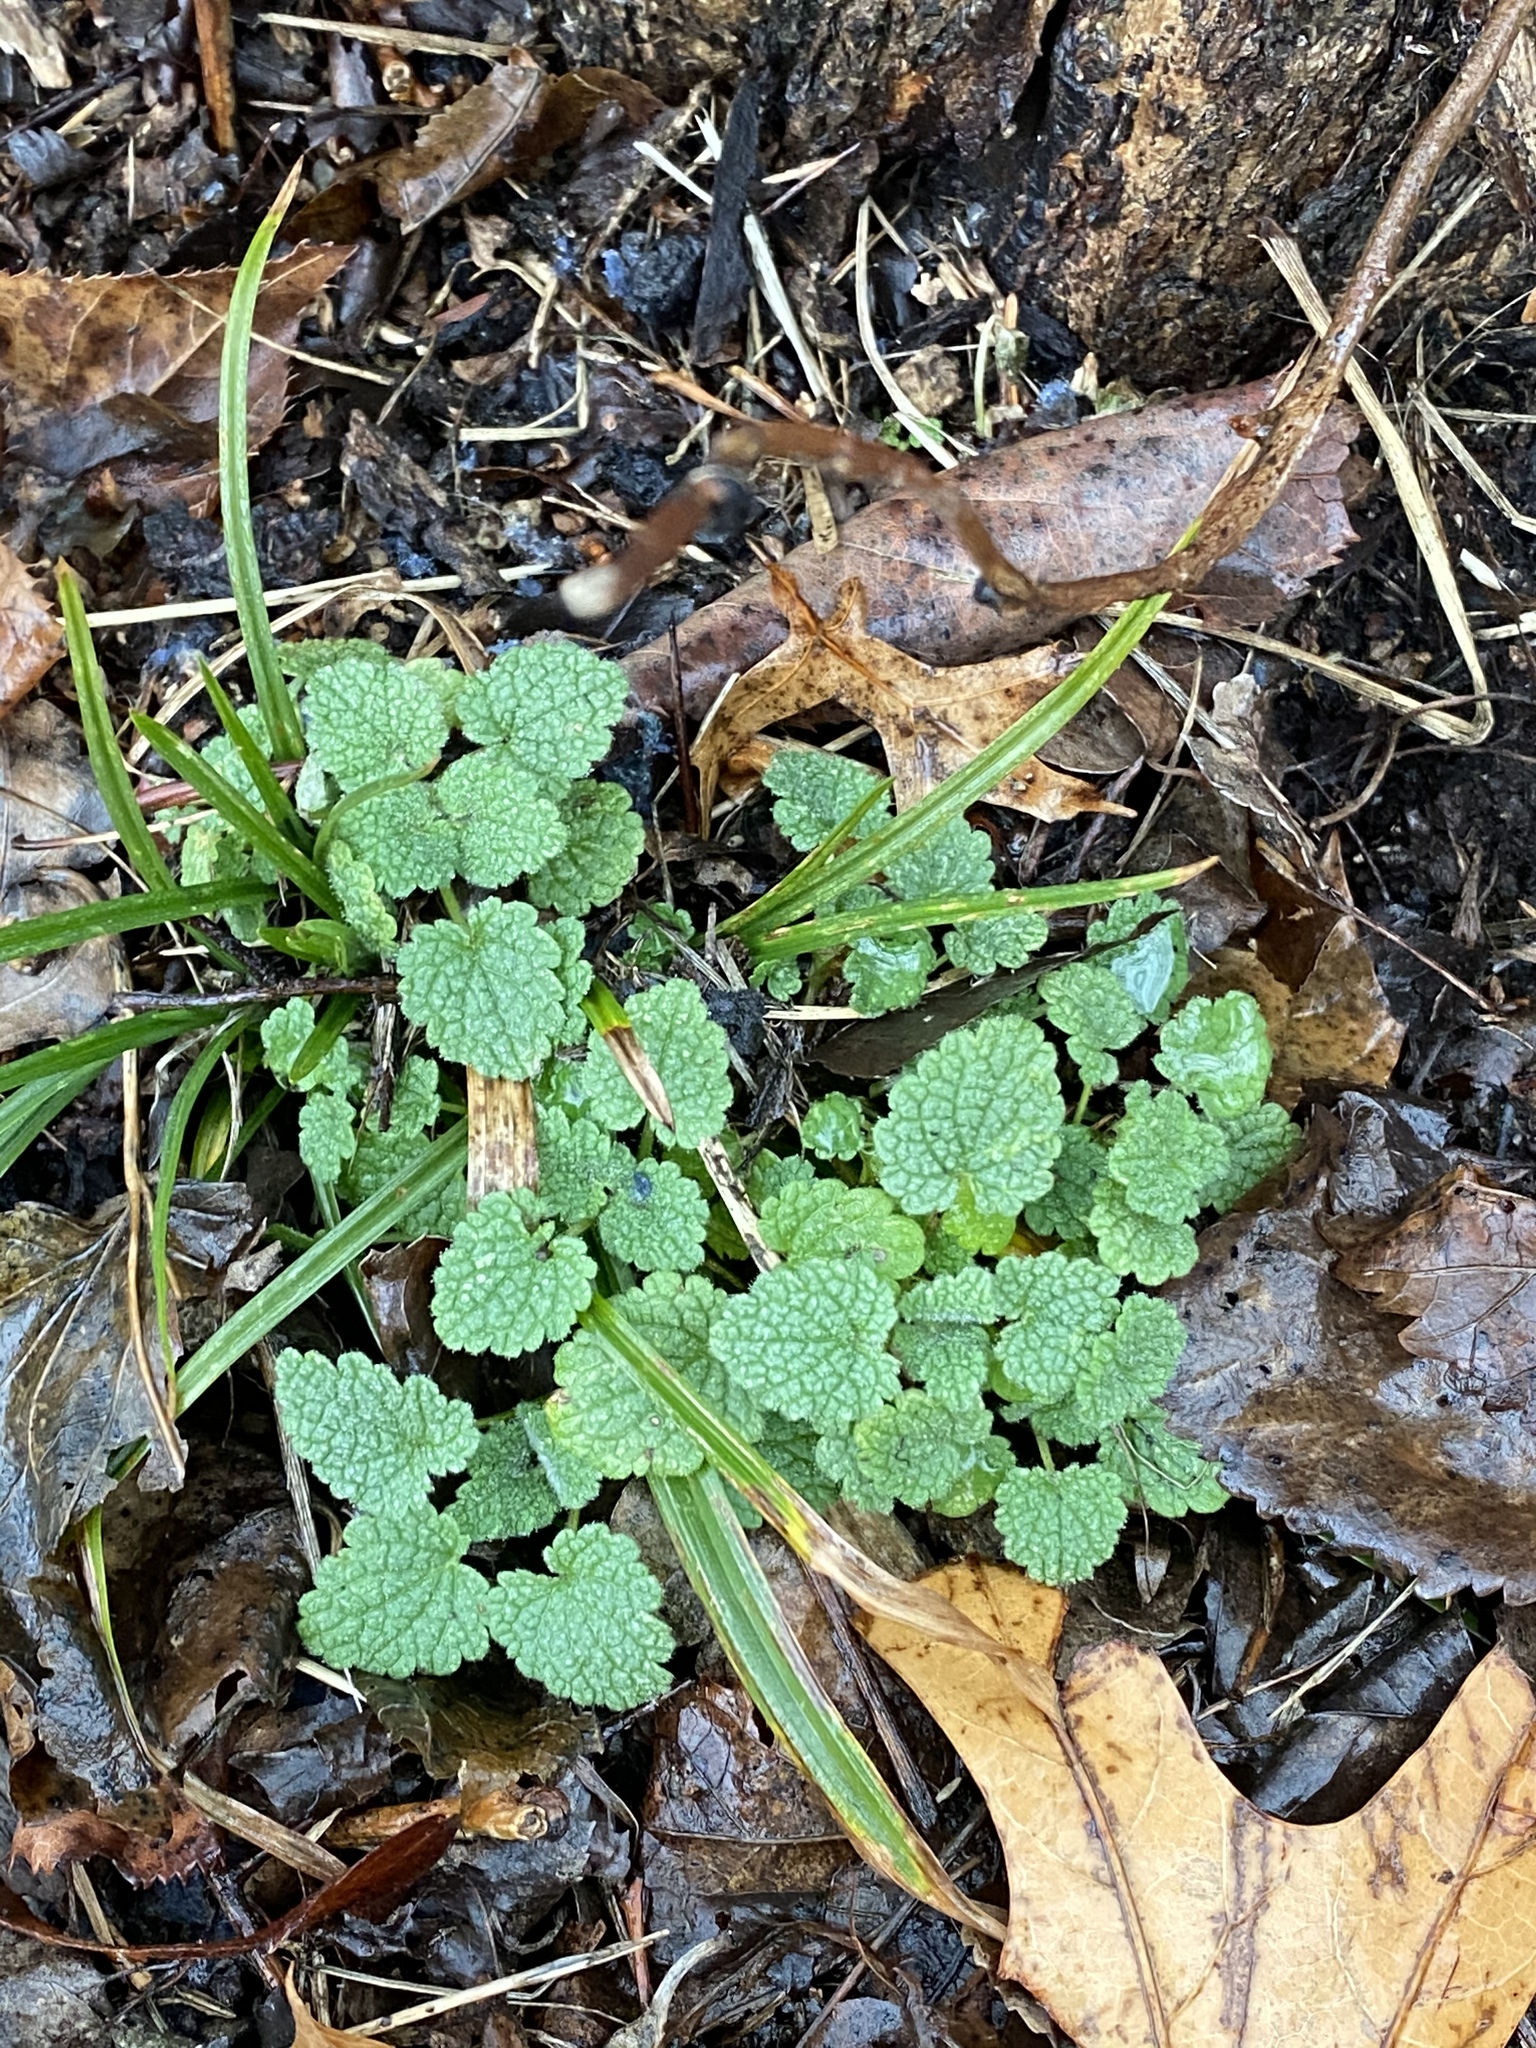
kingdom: Plantae
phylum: Tracheophyta
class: Magnoliopsida
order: Lamiales
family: Lamiaceae
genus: Lamium
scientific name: Lamium purpureum
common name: Red dead-nettle
